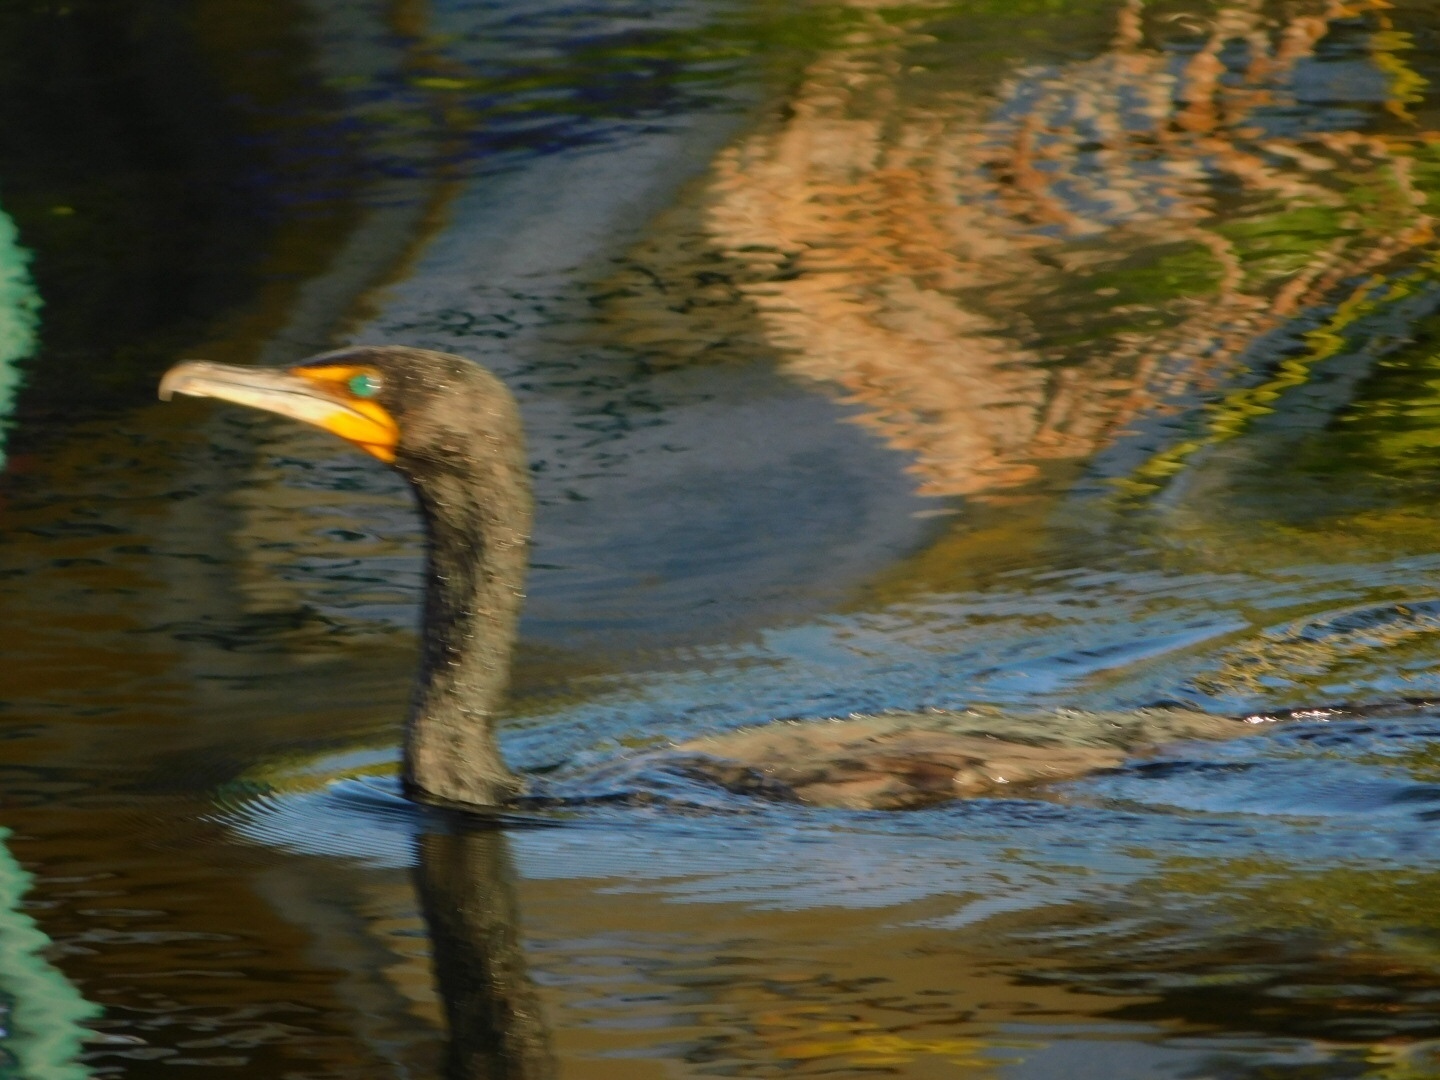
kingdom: Animalia
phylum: Chordata
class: Aves
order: Suliformes
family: Phalacrocoracidae
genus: Phalacrocorax
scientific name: Phalacrocorax auritus
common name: Double-crested cormorant
